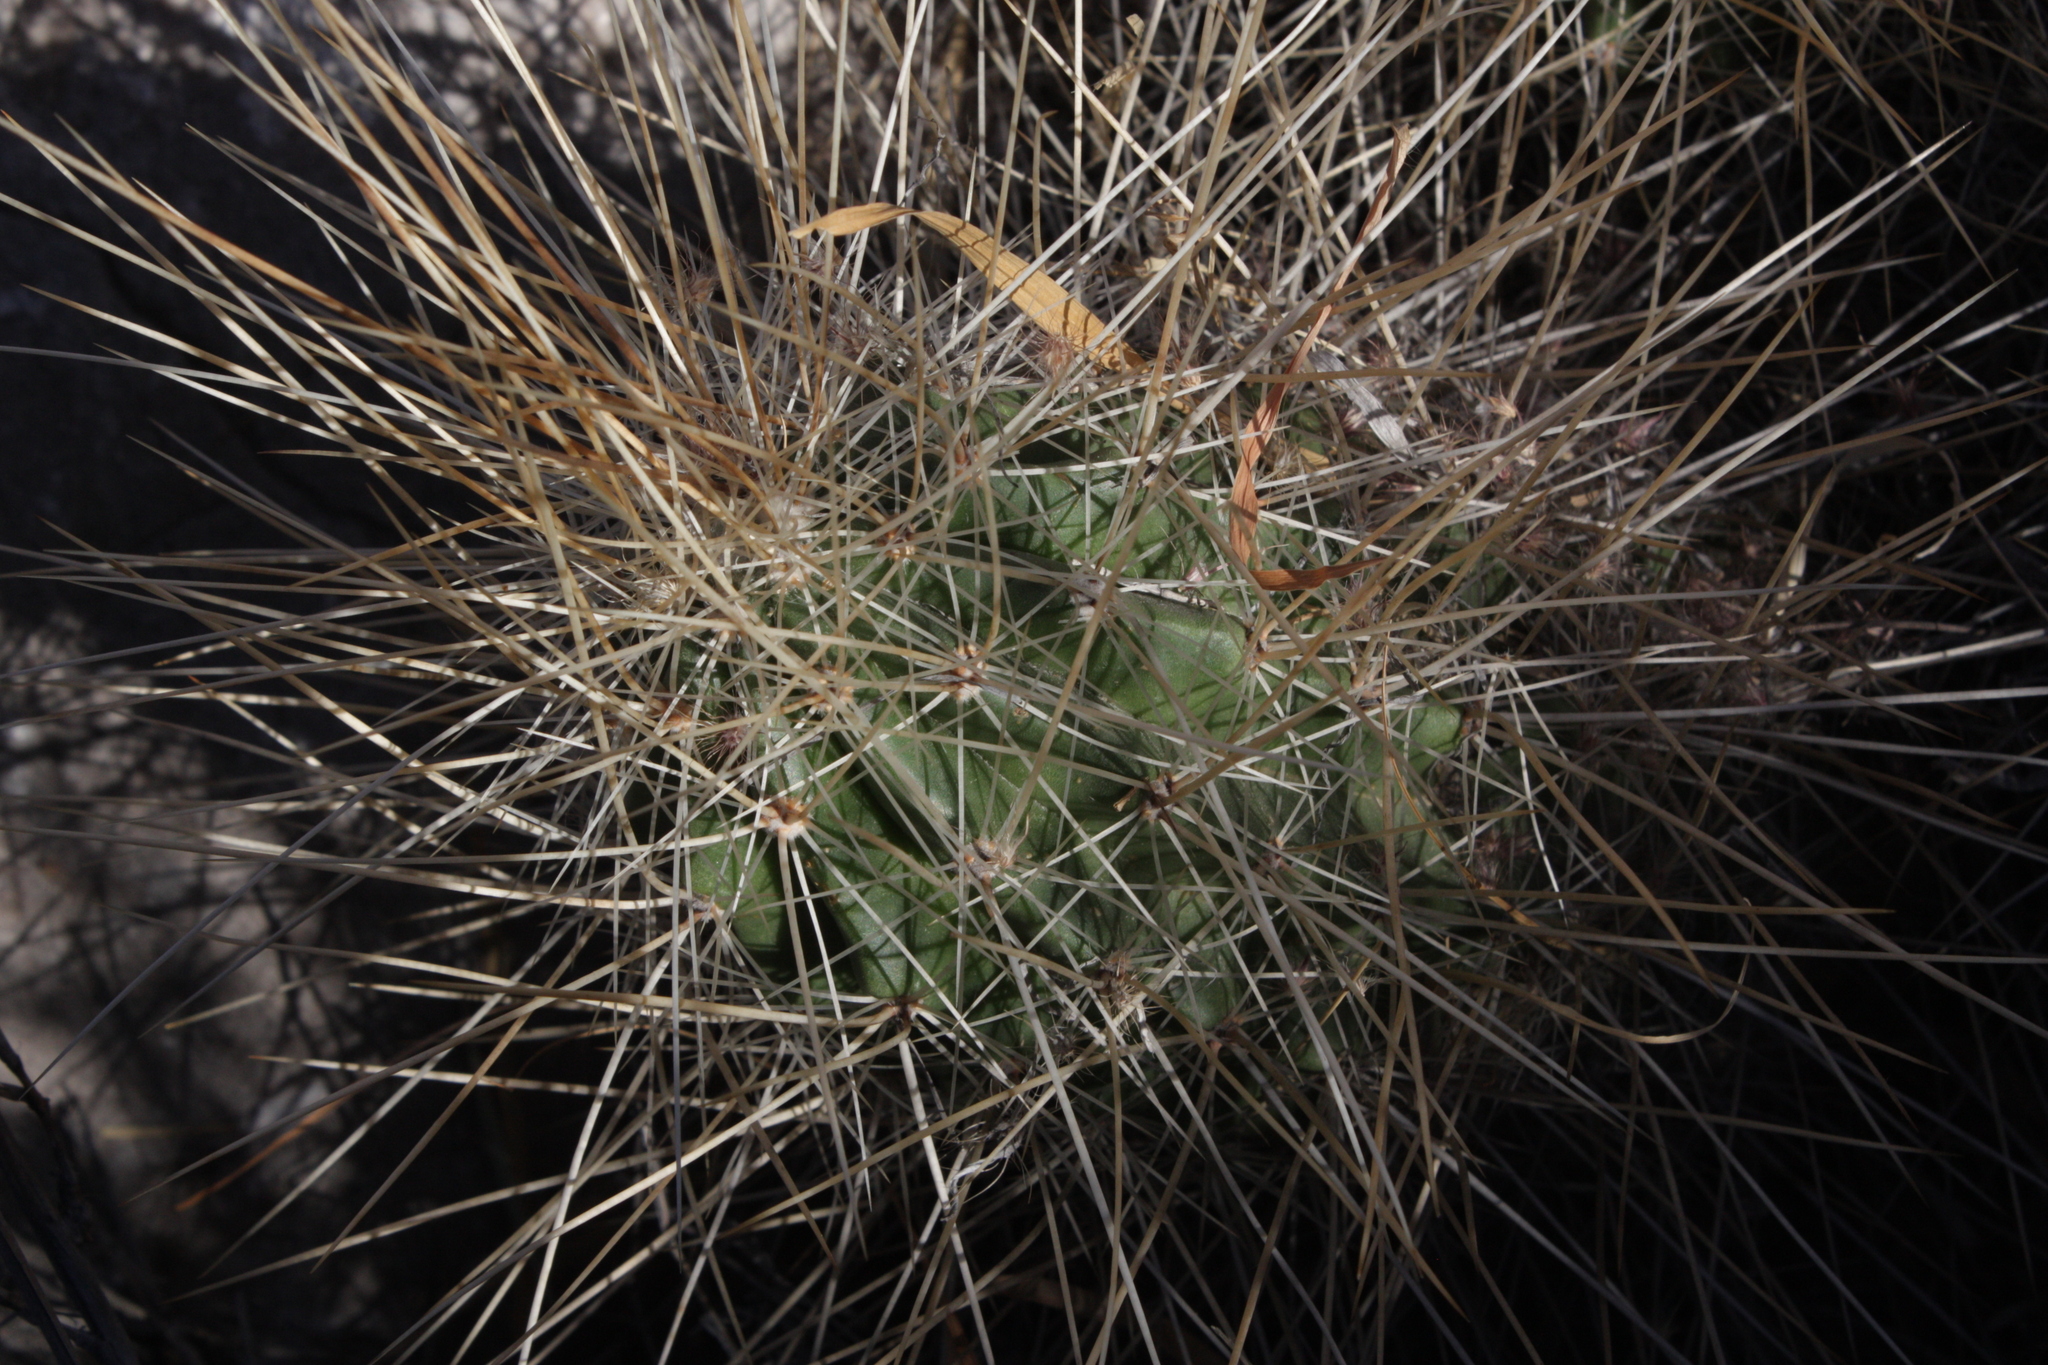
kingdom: Plantae
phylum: Tracheophyta
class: Magnoliopsida
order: Caryophyllales
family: Cactaceae
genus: Echinocereus
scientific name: Echinocereus stramineus
